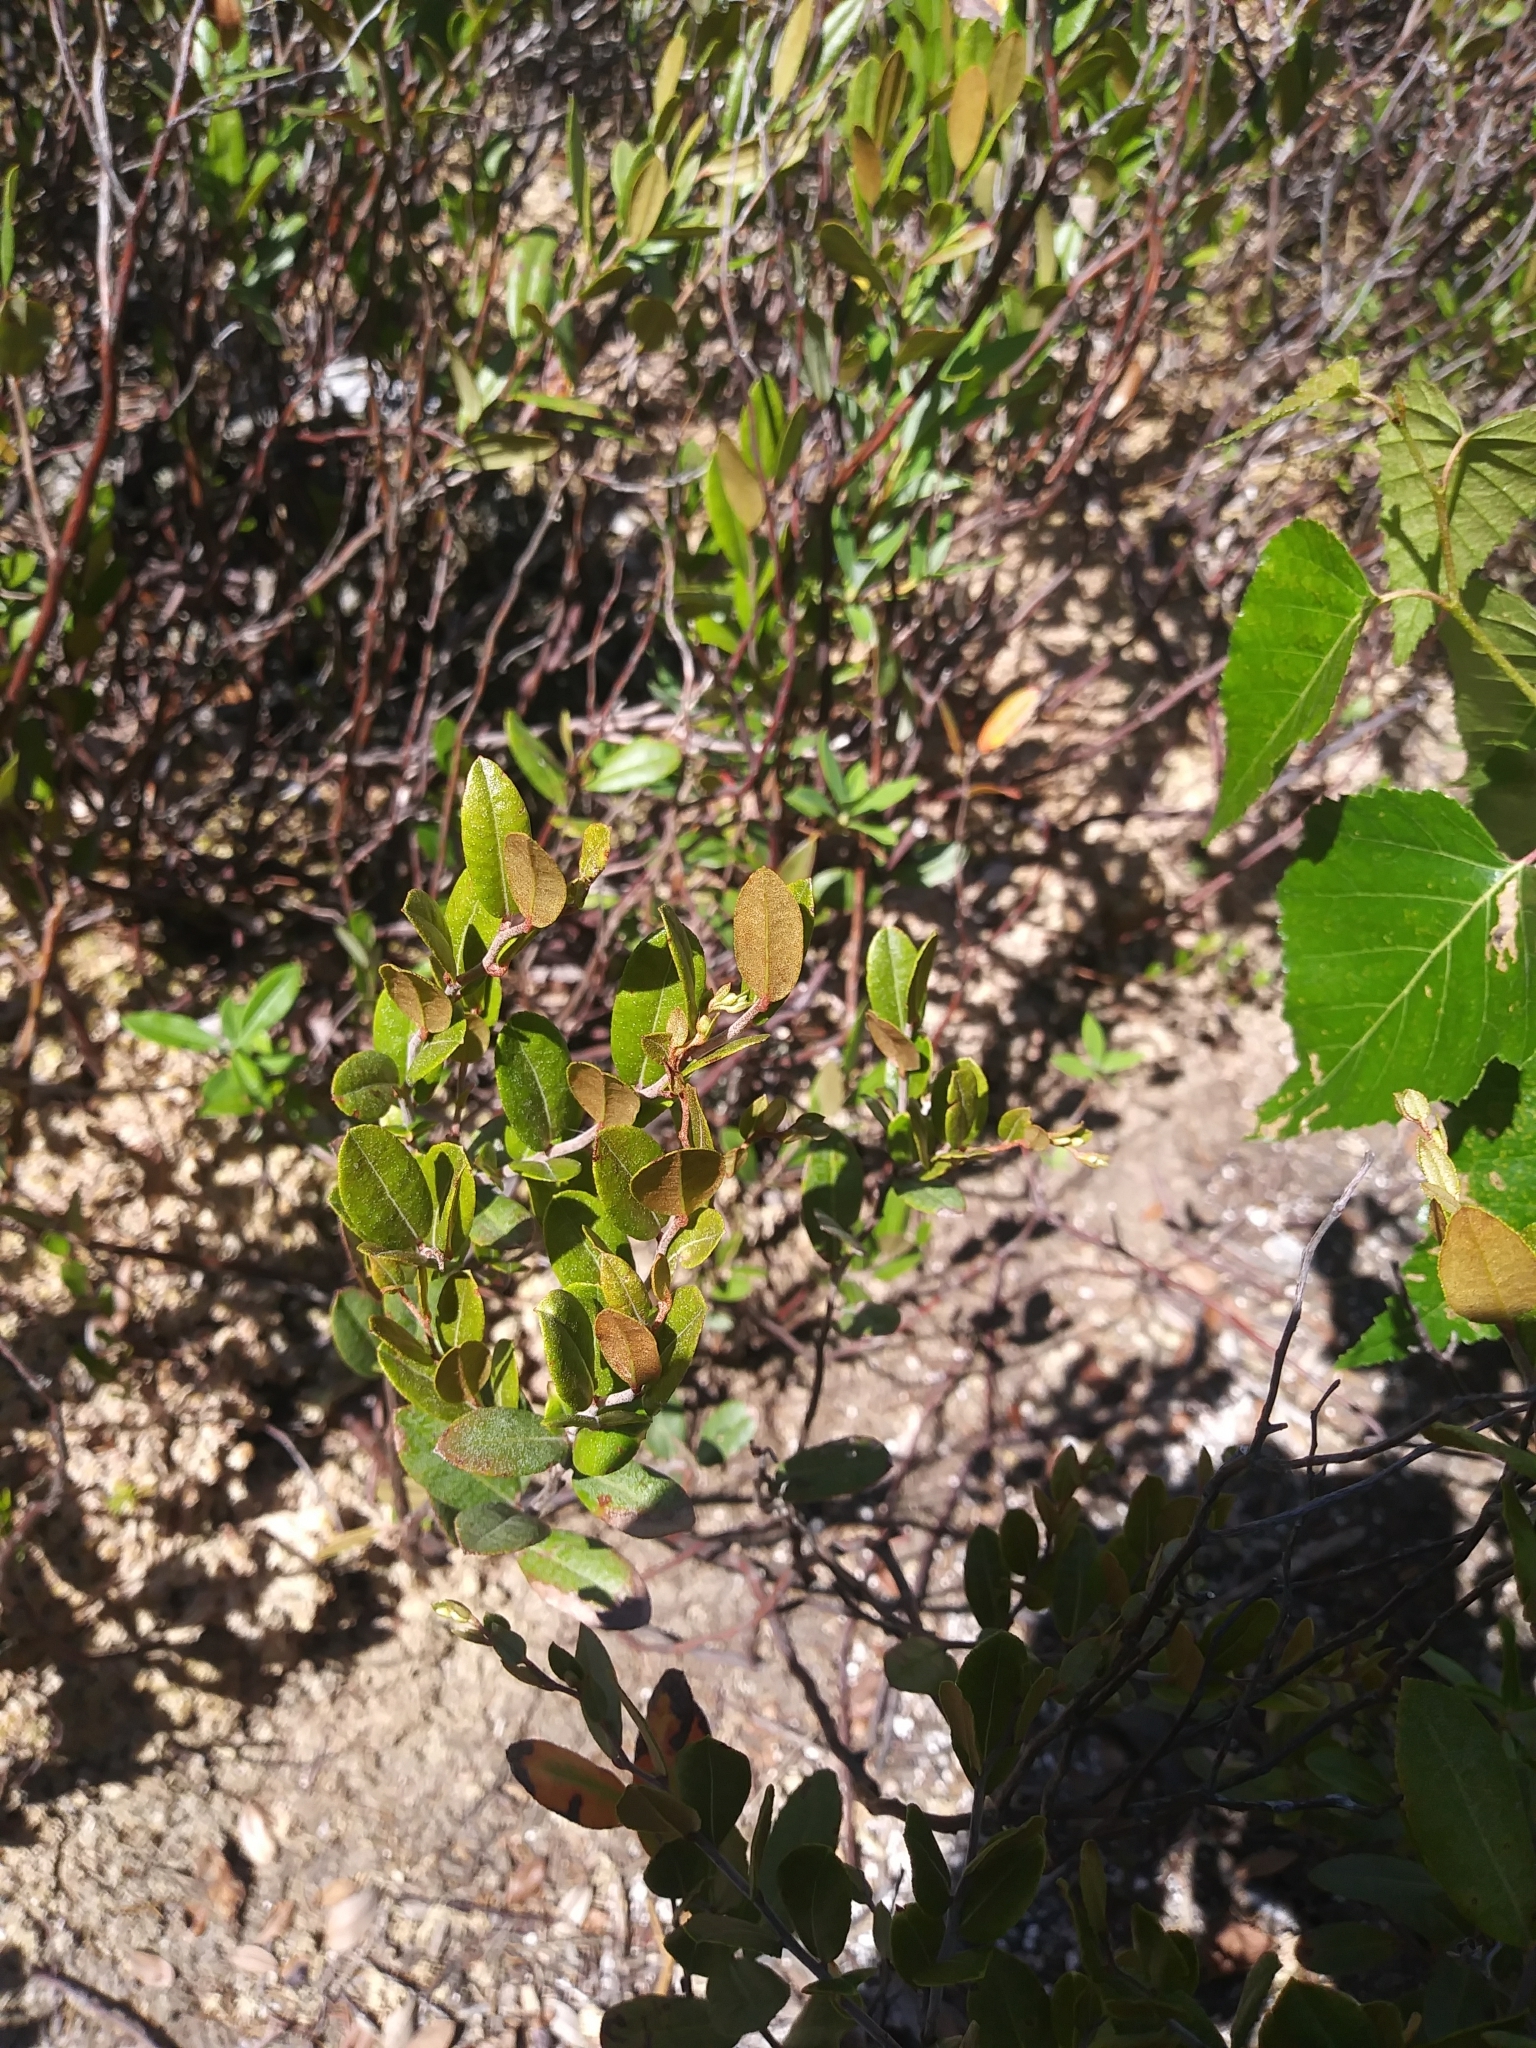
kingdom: Plantae
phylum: Tracheophyta
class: Magnoliopsida
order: Ericales
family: Ericaceae
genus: Chamaedaphne
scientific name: Chamaedaphne calyculata
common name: Leatherleaf
